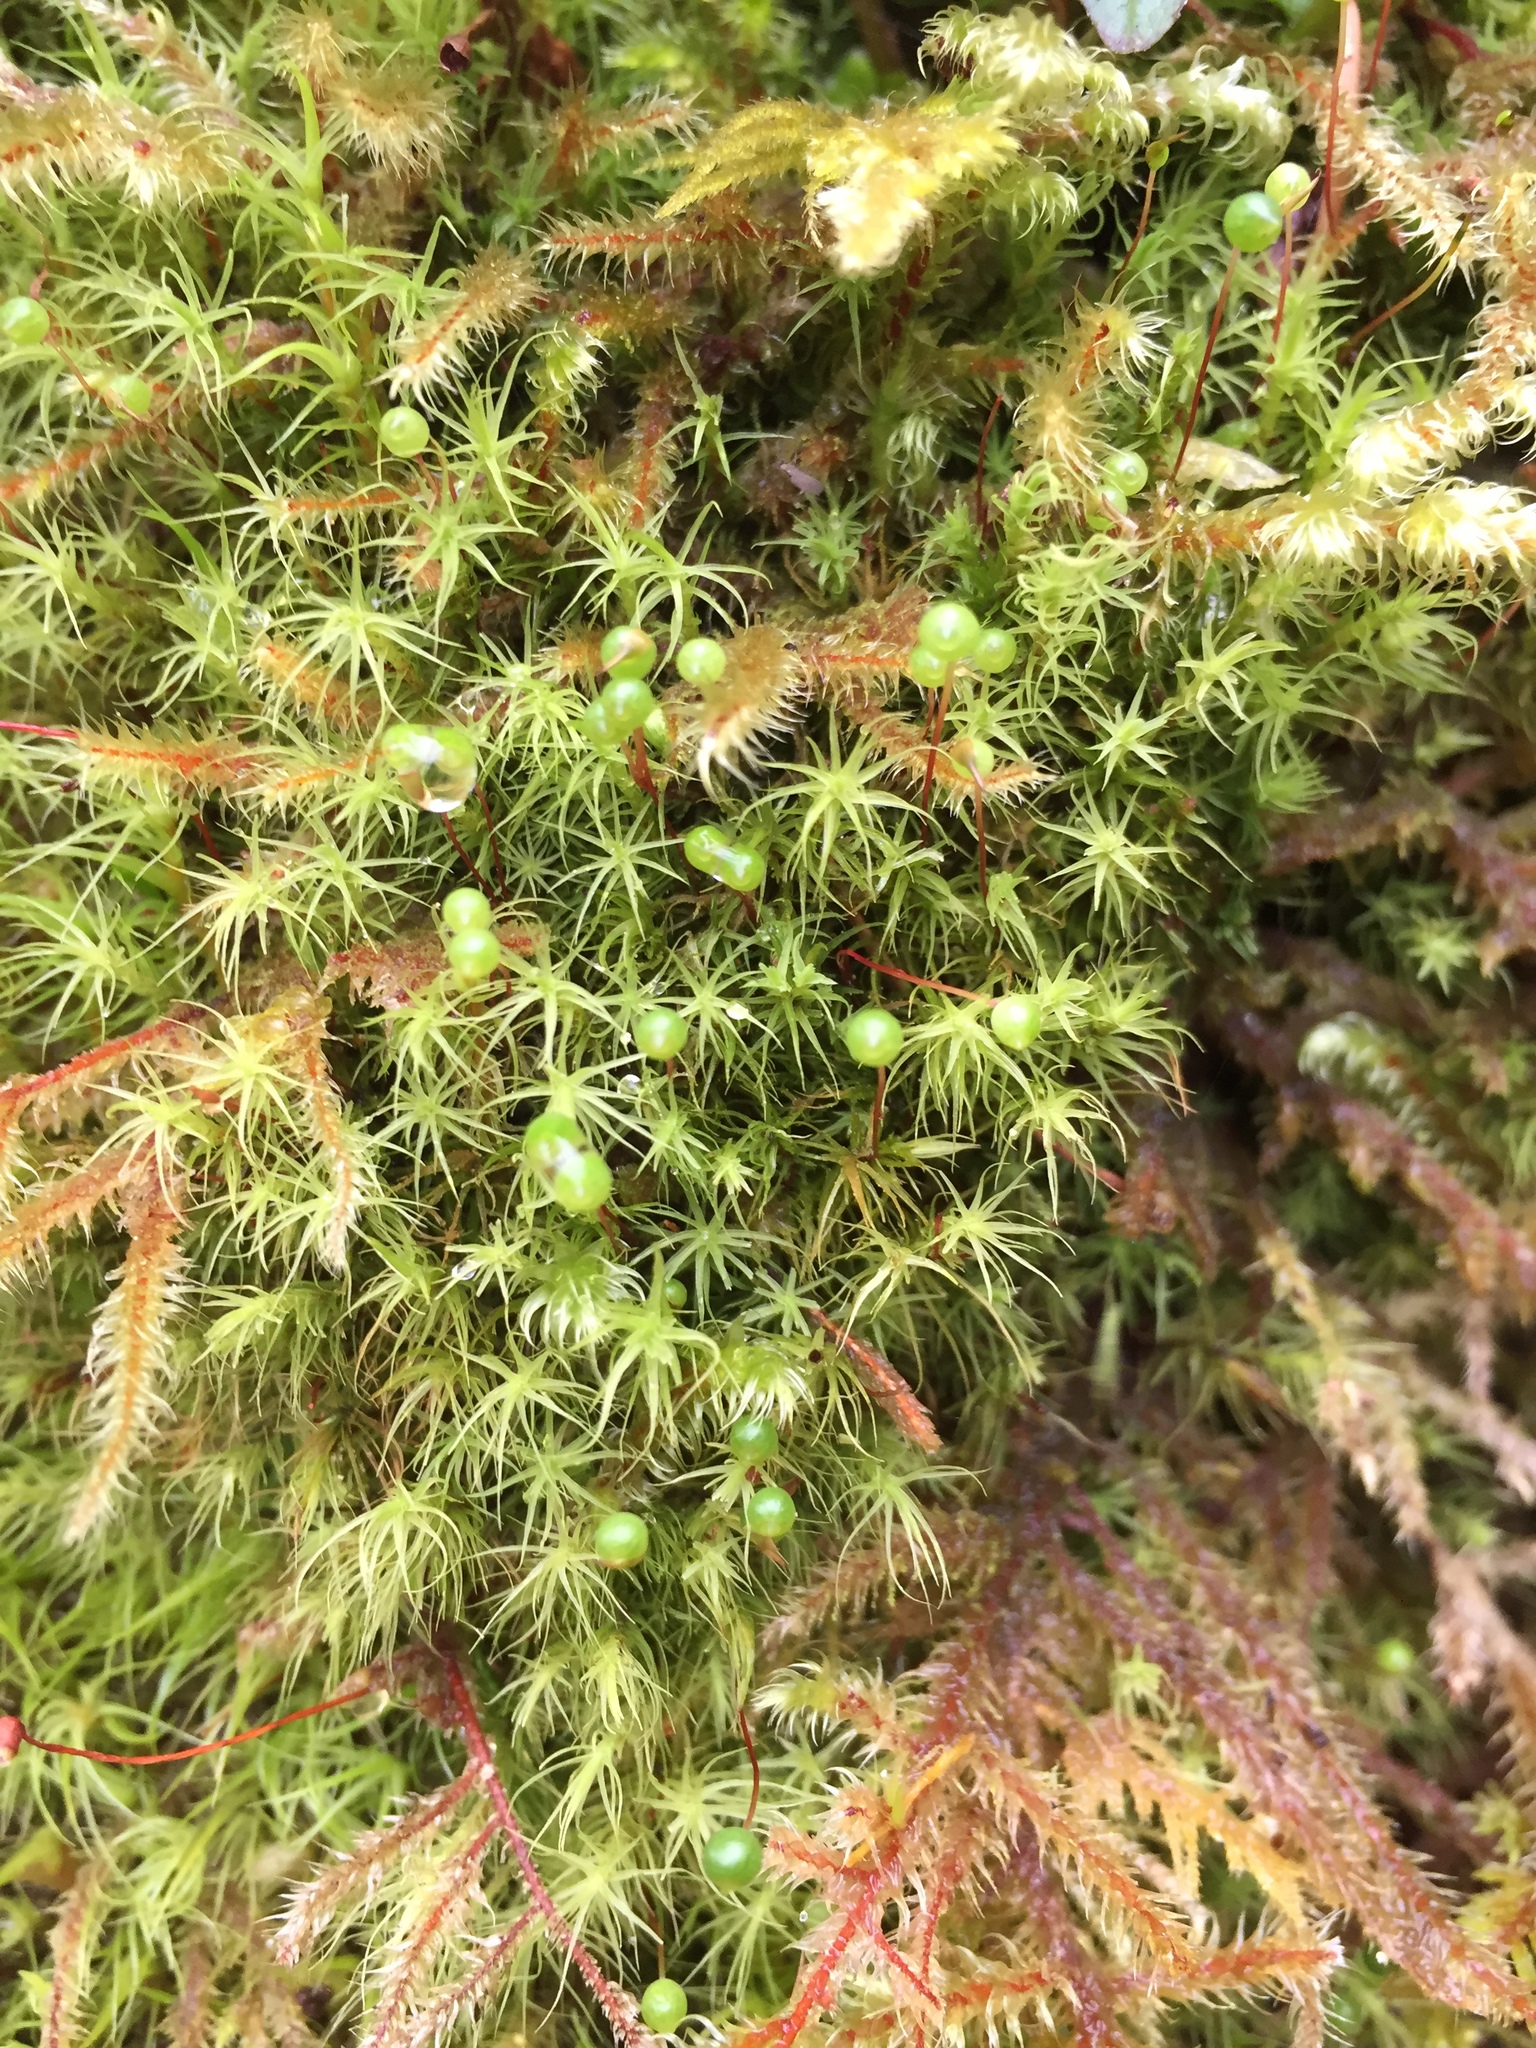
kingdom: Plantae
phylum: Bryophyta
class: Bryopsida
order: Bartramiales
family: Bartramiaceae
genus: Bartramia
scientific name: Bartramia ithyphylla
